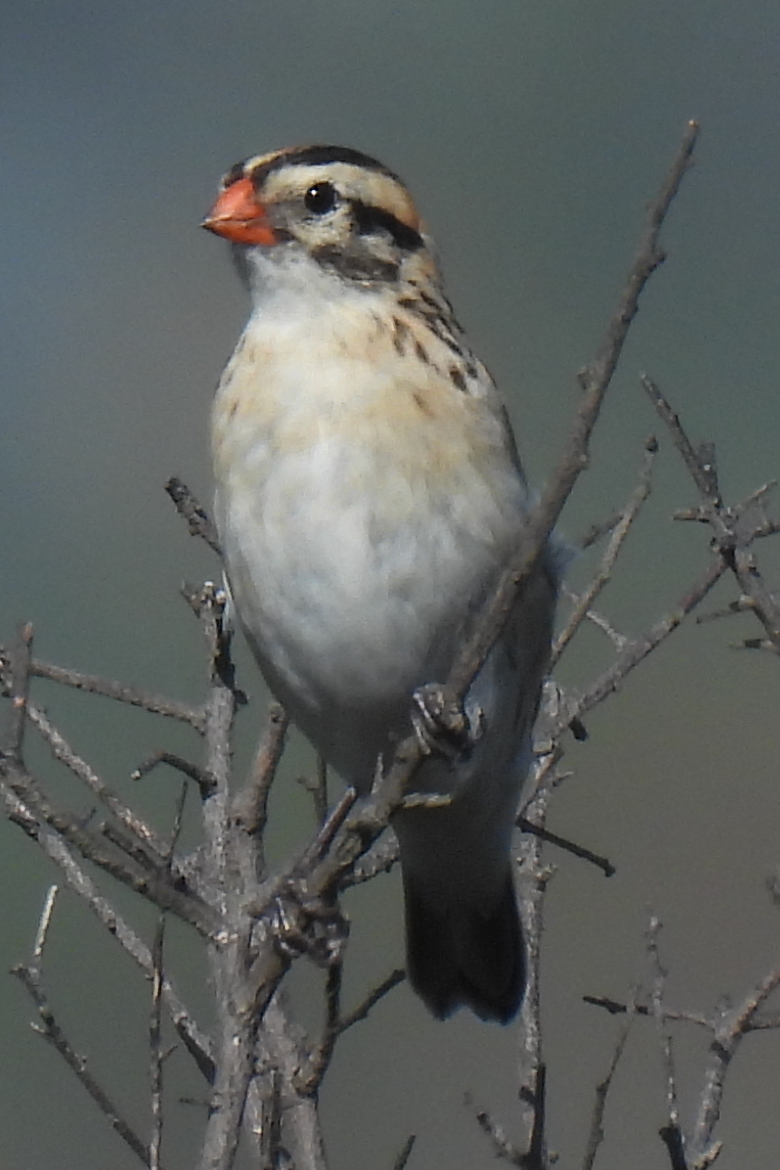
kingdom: Animalia
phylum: Chordata
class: Aves
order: Passeriformes
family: Viduidae
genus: Vidua
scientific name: Vidua macroura
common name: Pin-tailed whydah
